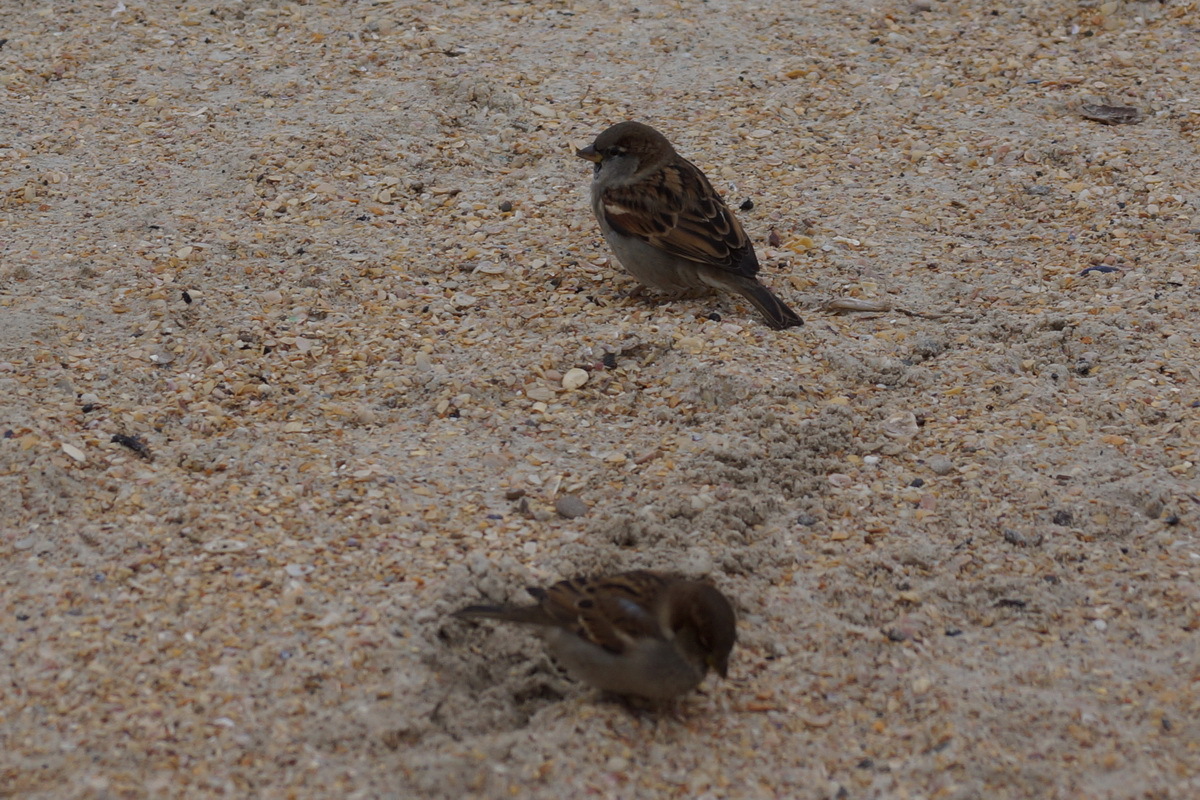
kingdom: Animalia
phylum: Chordata
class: Aves
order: Passeriformes
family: Passeridae
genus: Passer
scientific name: Passer domesticus
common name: House sparrow
